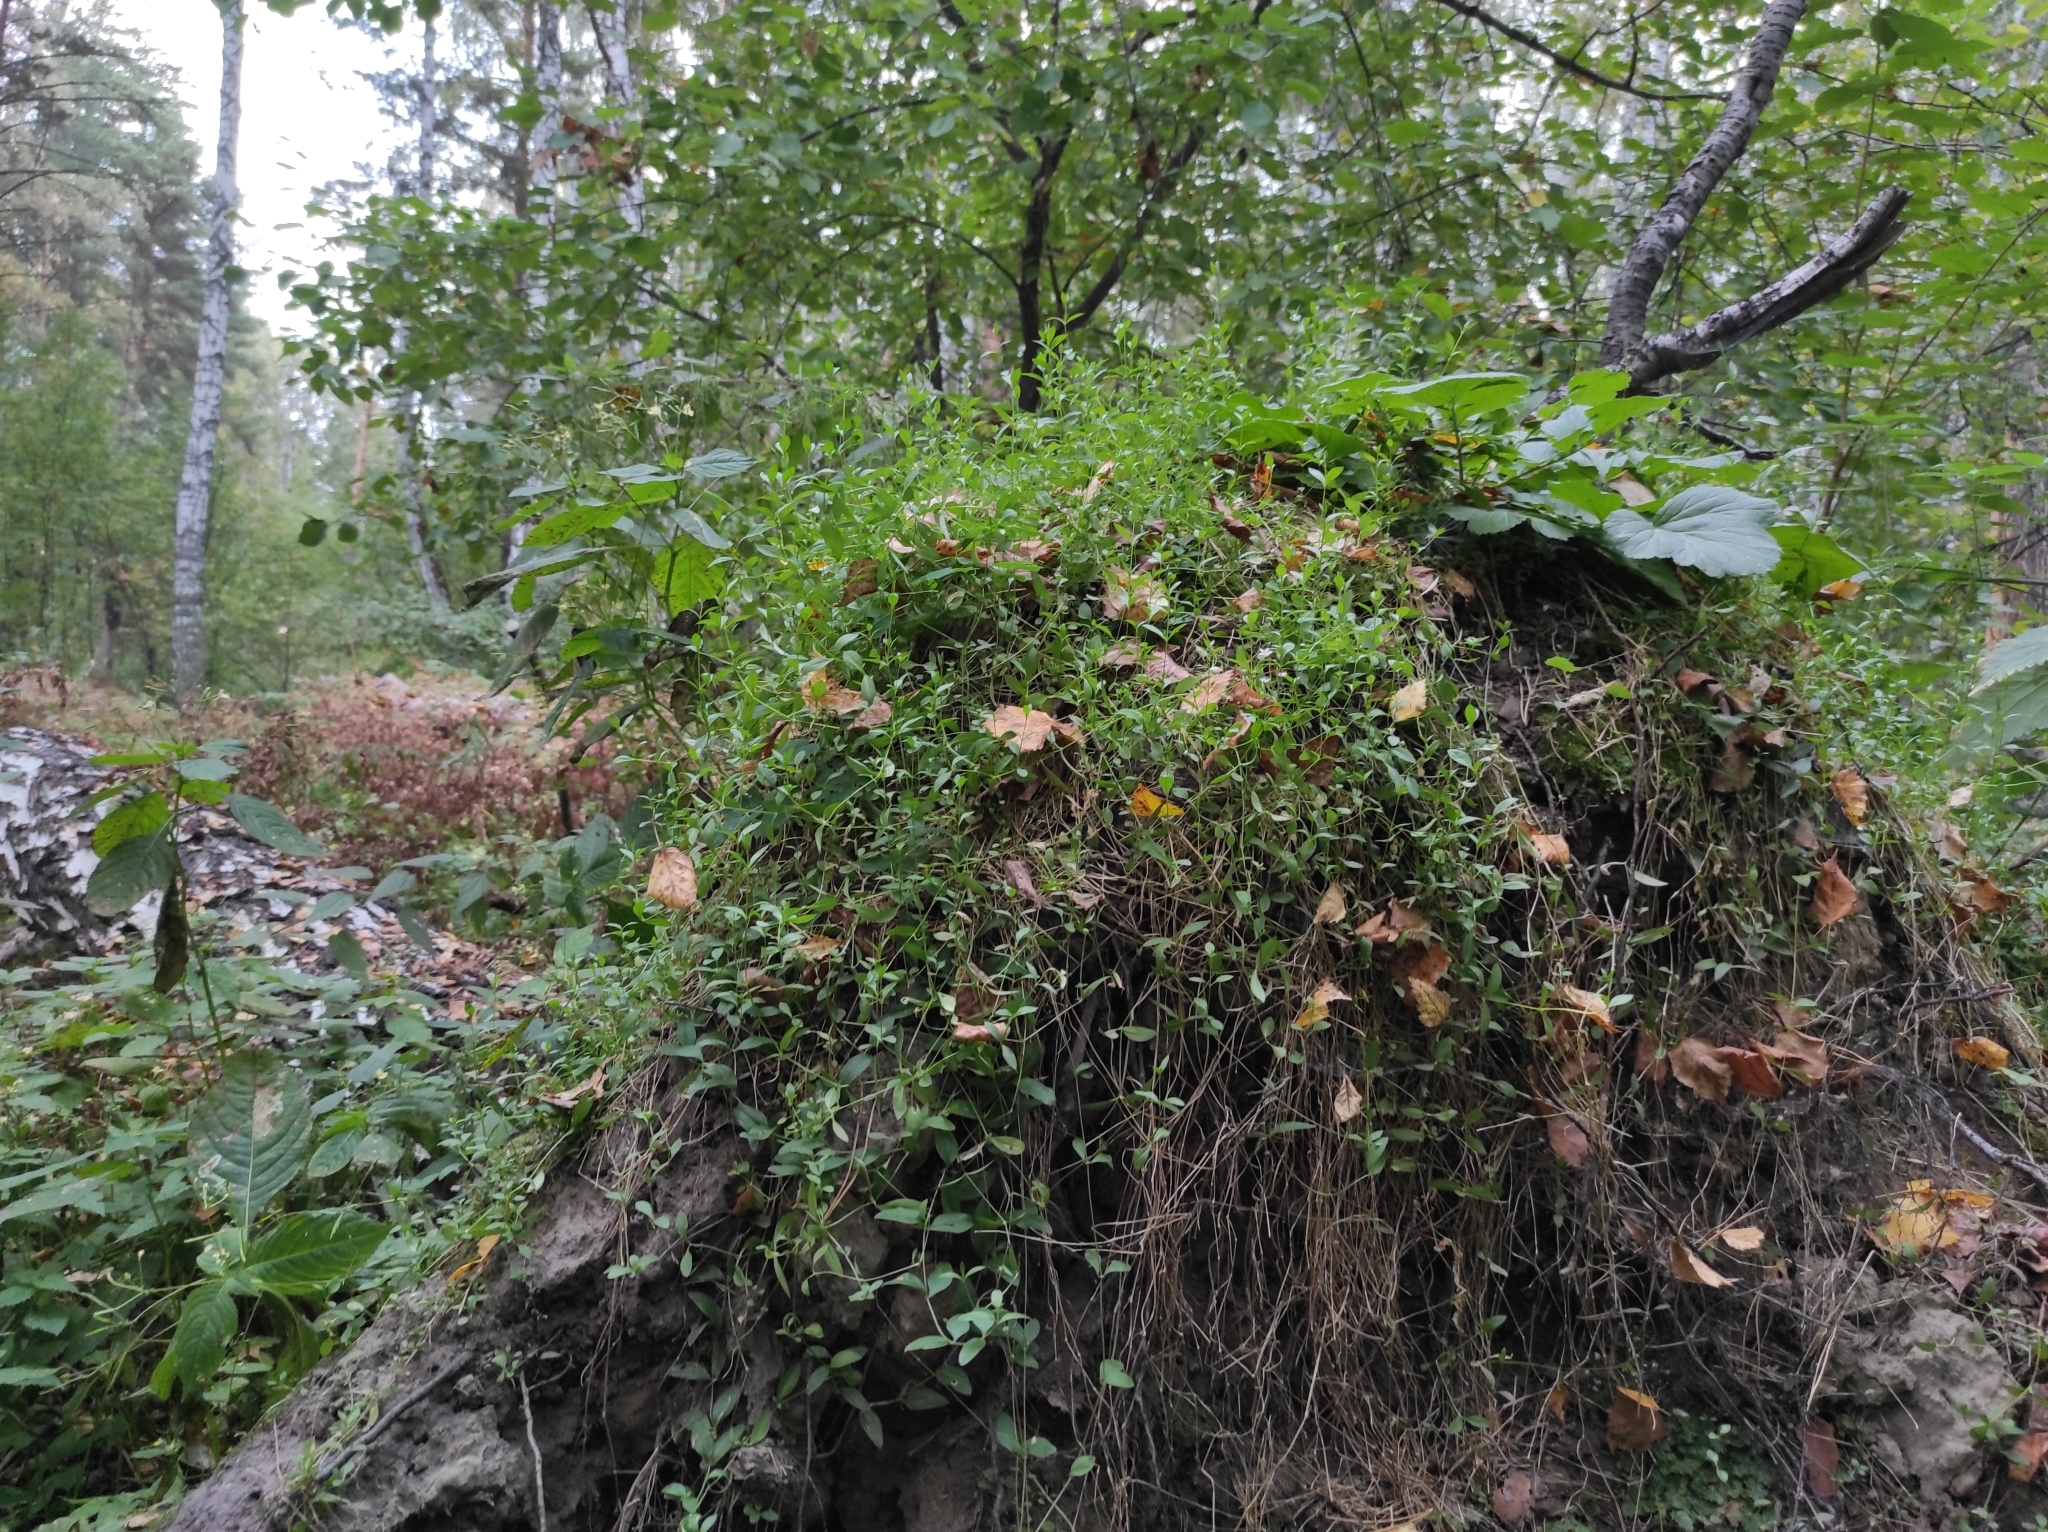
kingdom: Plantae
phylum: Tracheophyta
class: Magnoliopsida
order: Caryophyllales
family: Caryophyllaceae
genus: Moehringia
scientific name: Moehringia lateriflora
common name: Blunt-leaved sandwort
